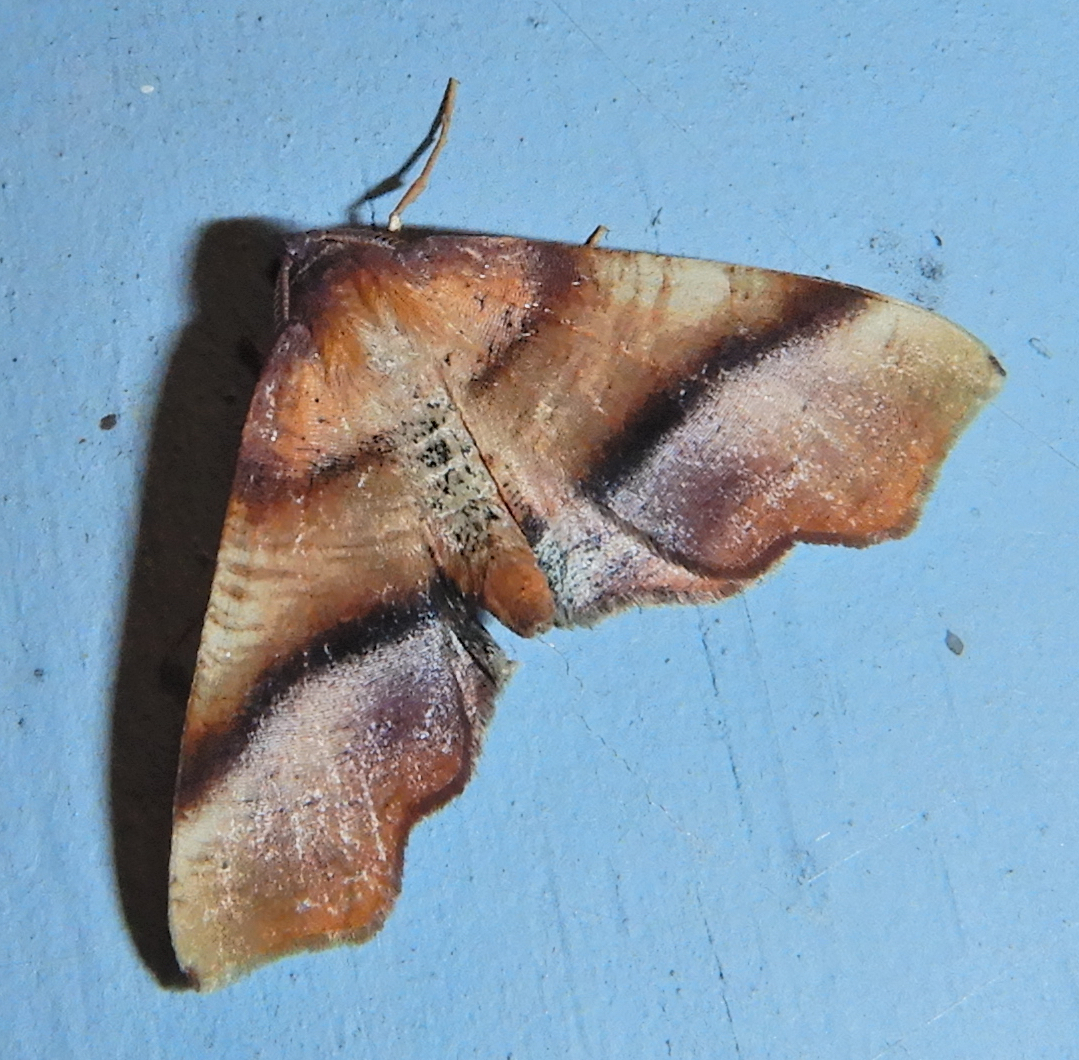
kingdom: Animalia
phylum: Arthropoda
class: Insecta
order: Lepidoptera
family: Geometridae
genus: Plagodis
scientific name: Plagodis phlogosaria
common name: Straight-lined plagodis
